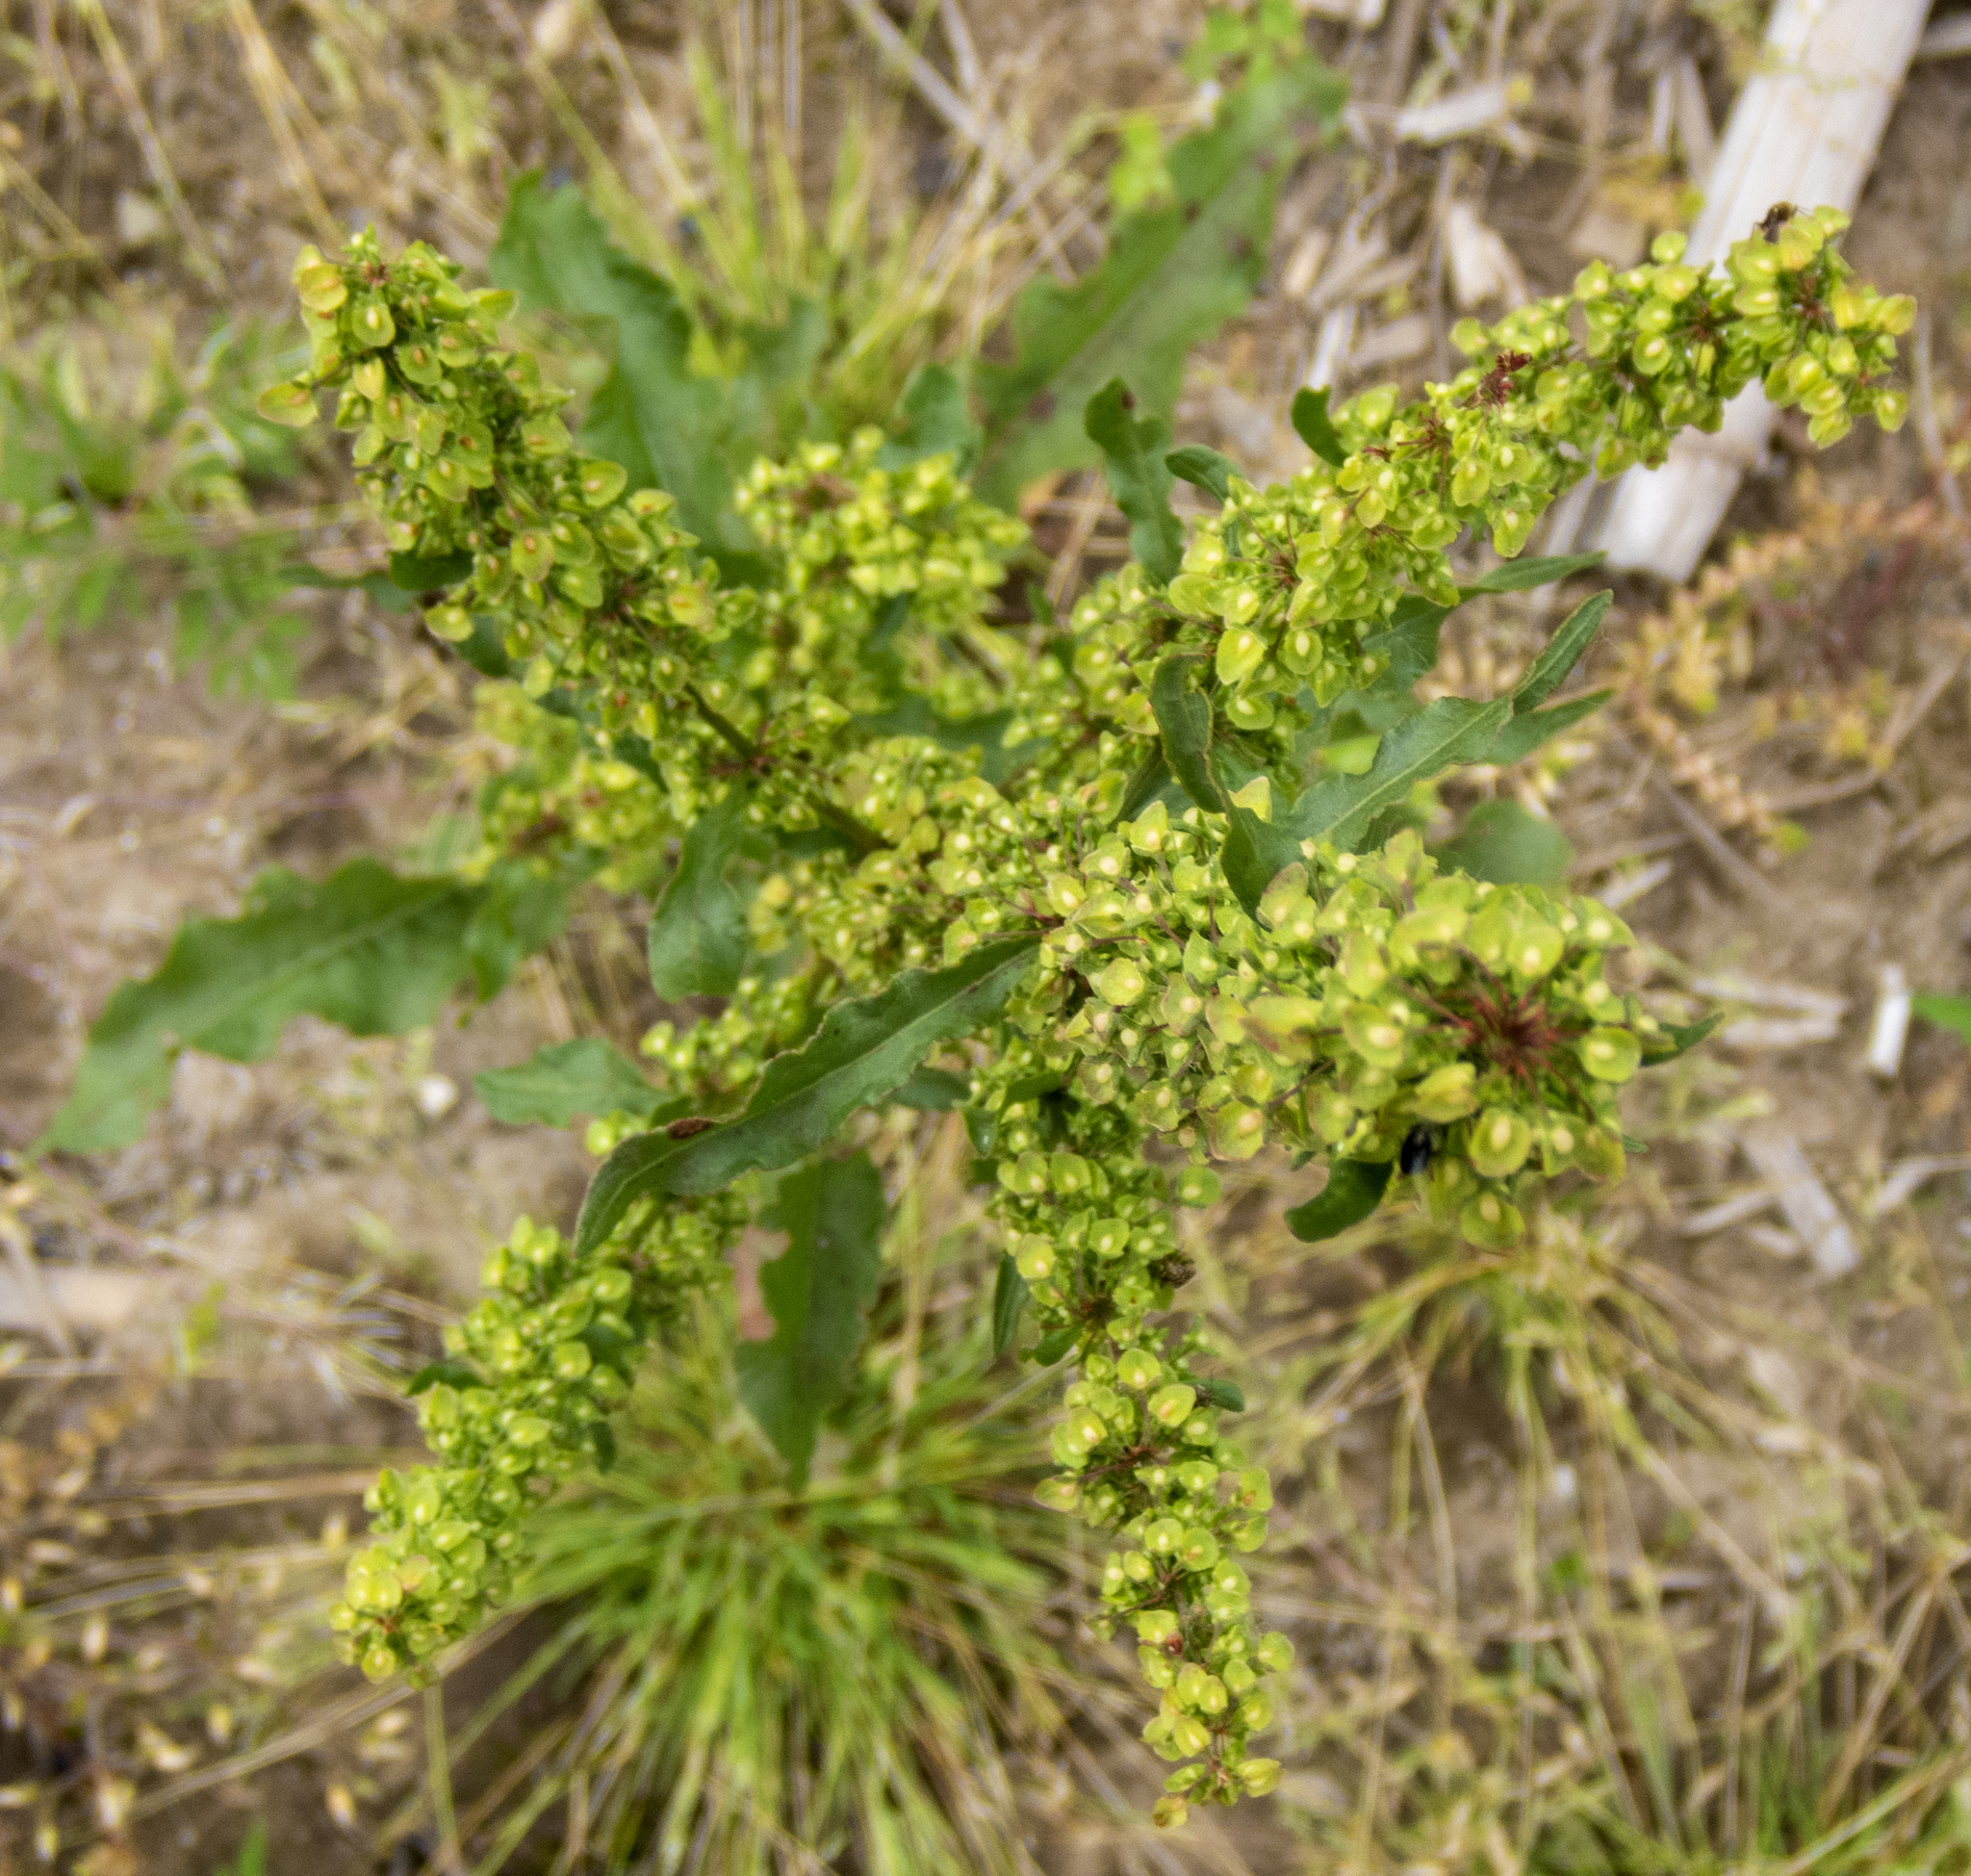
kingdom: Plantae
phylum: Tracheophyta
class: Magnoliopsida
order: Caryophyllales
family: Polygonaceae
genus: Rumex
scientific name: Rumex crispus
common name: Curled dock
